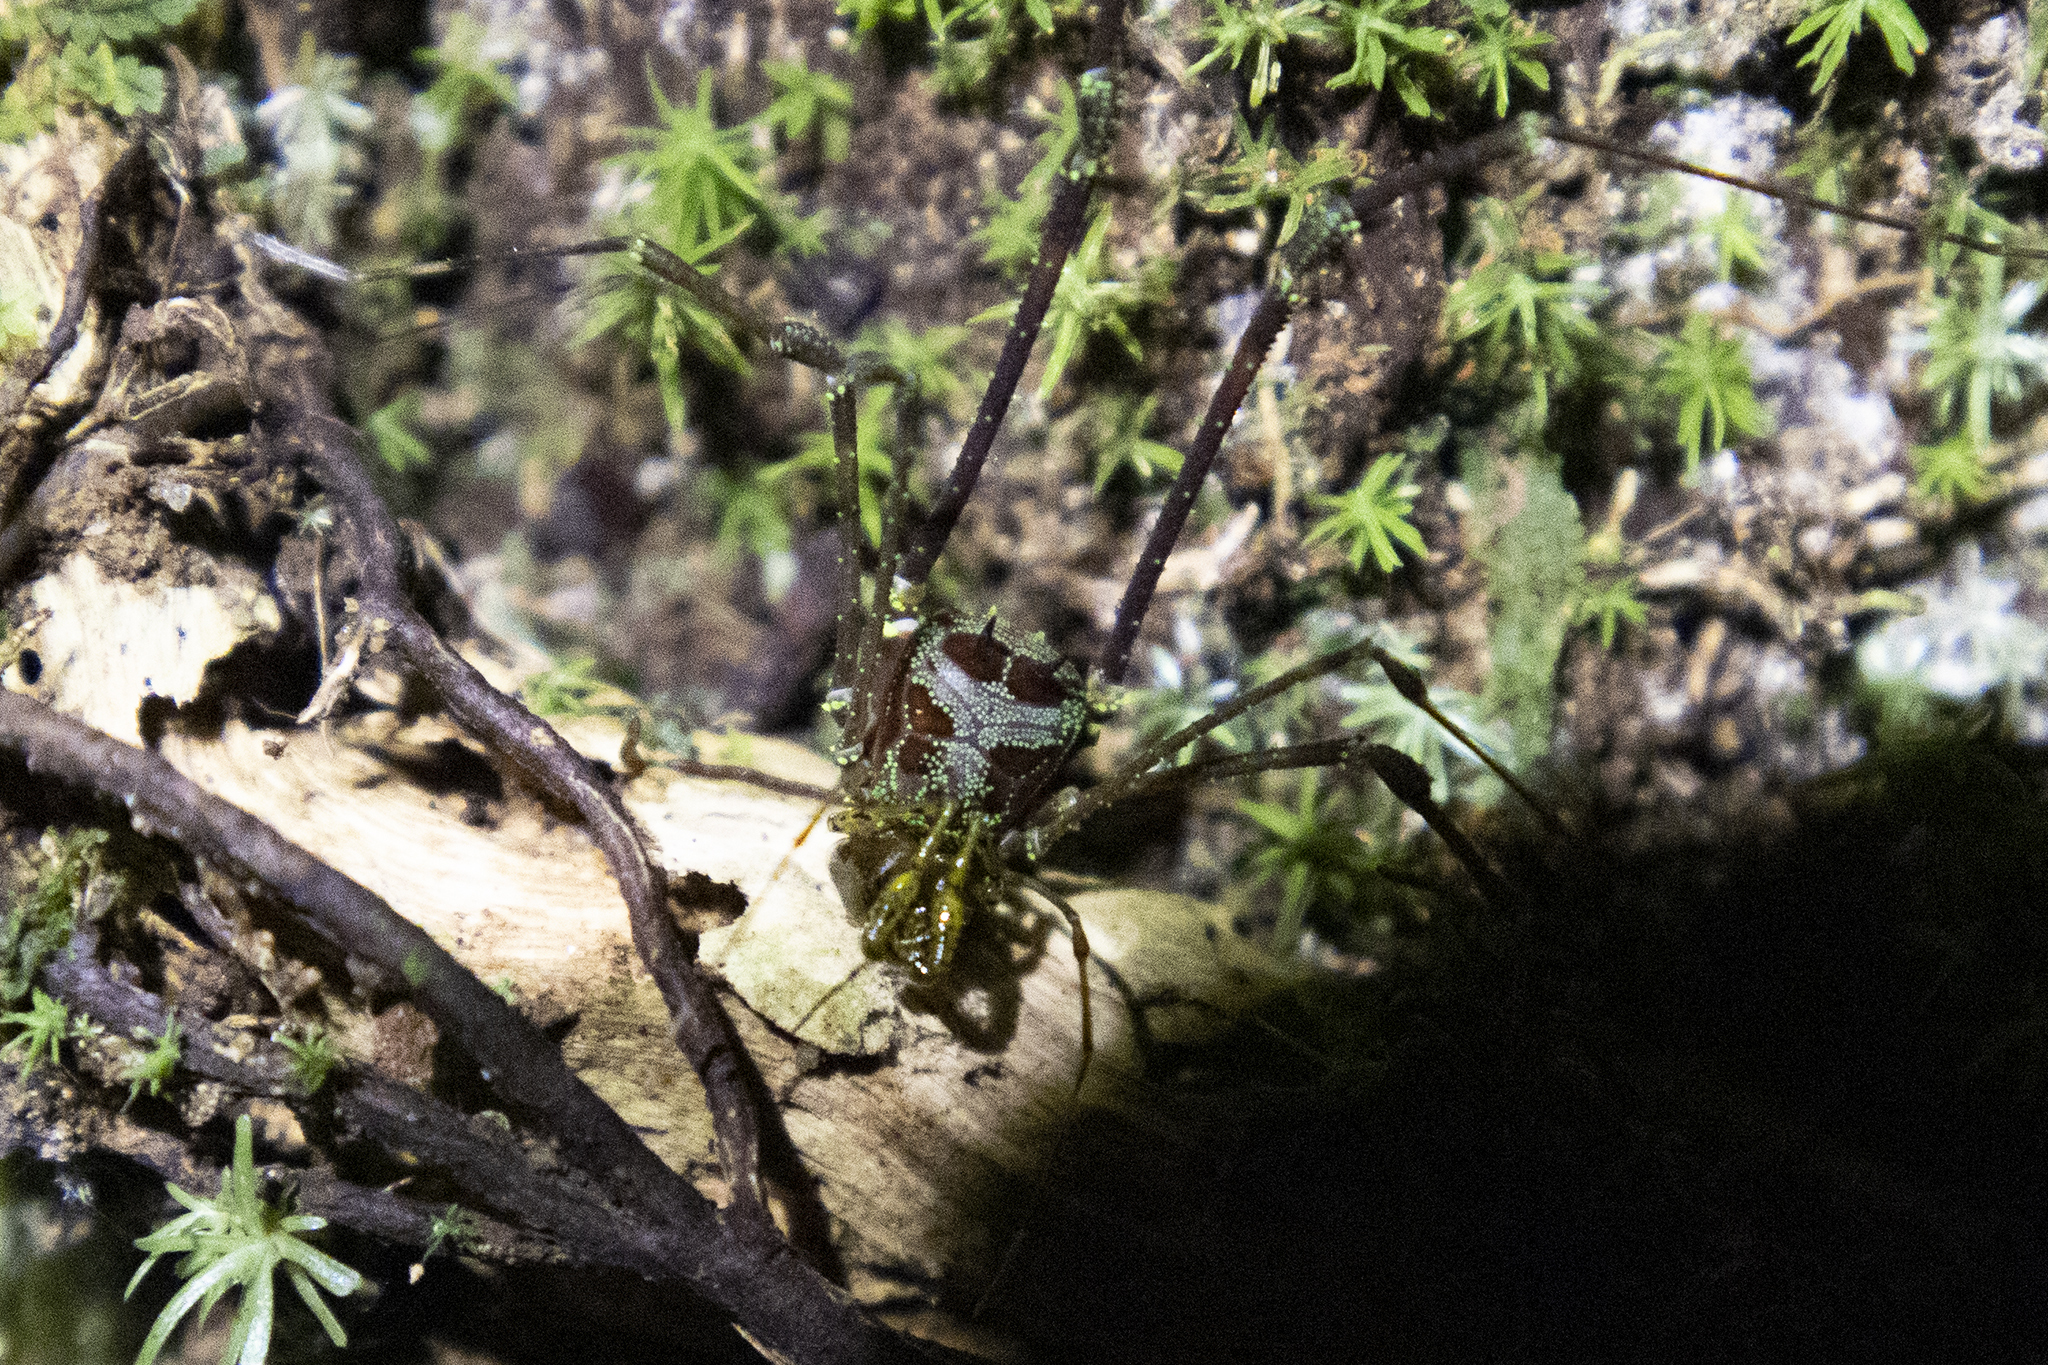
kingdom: Animalia
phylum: Arthropoda
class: Arachnida
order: Opiliones
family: Stygnidae
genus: Stygnus
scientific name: Stygnus nogueirai
